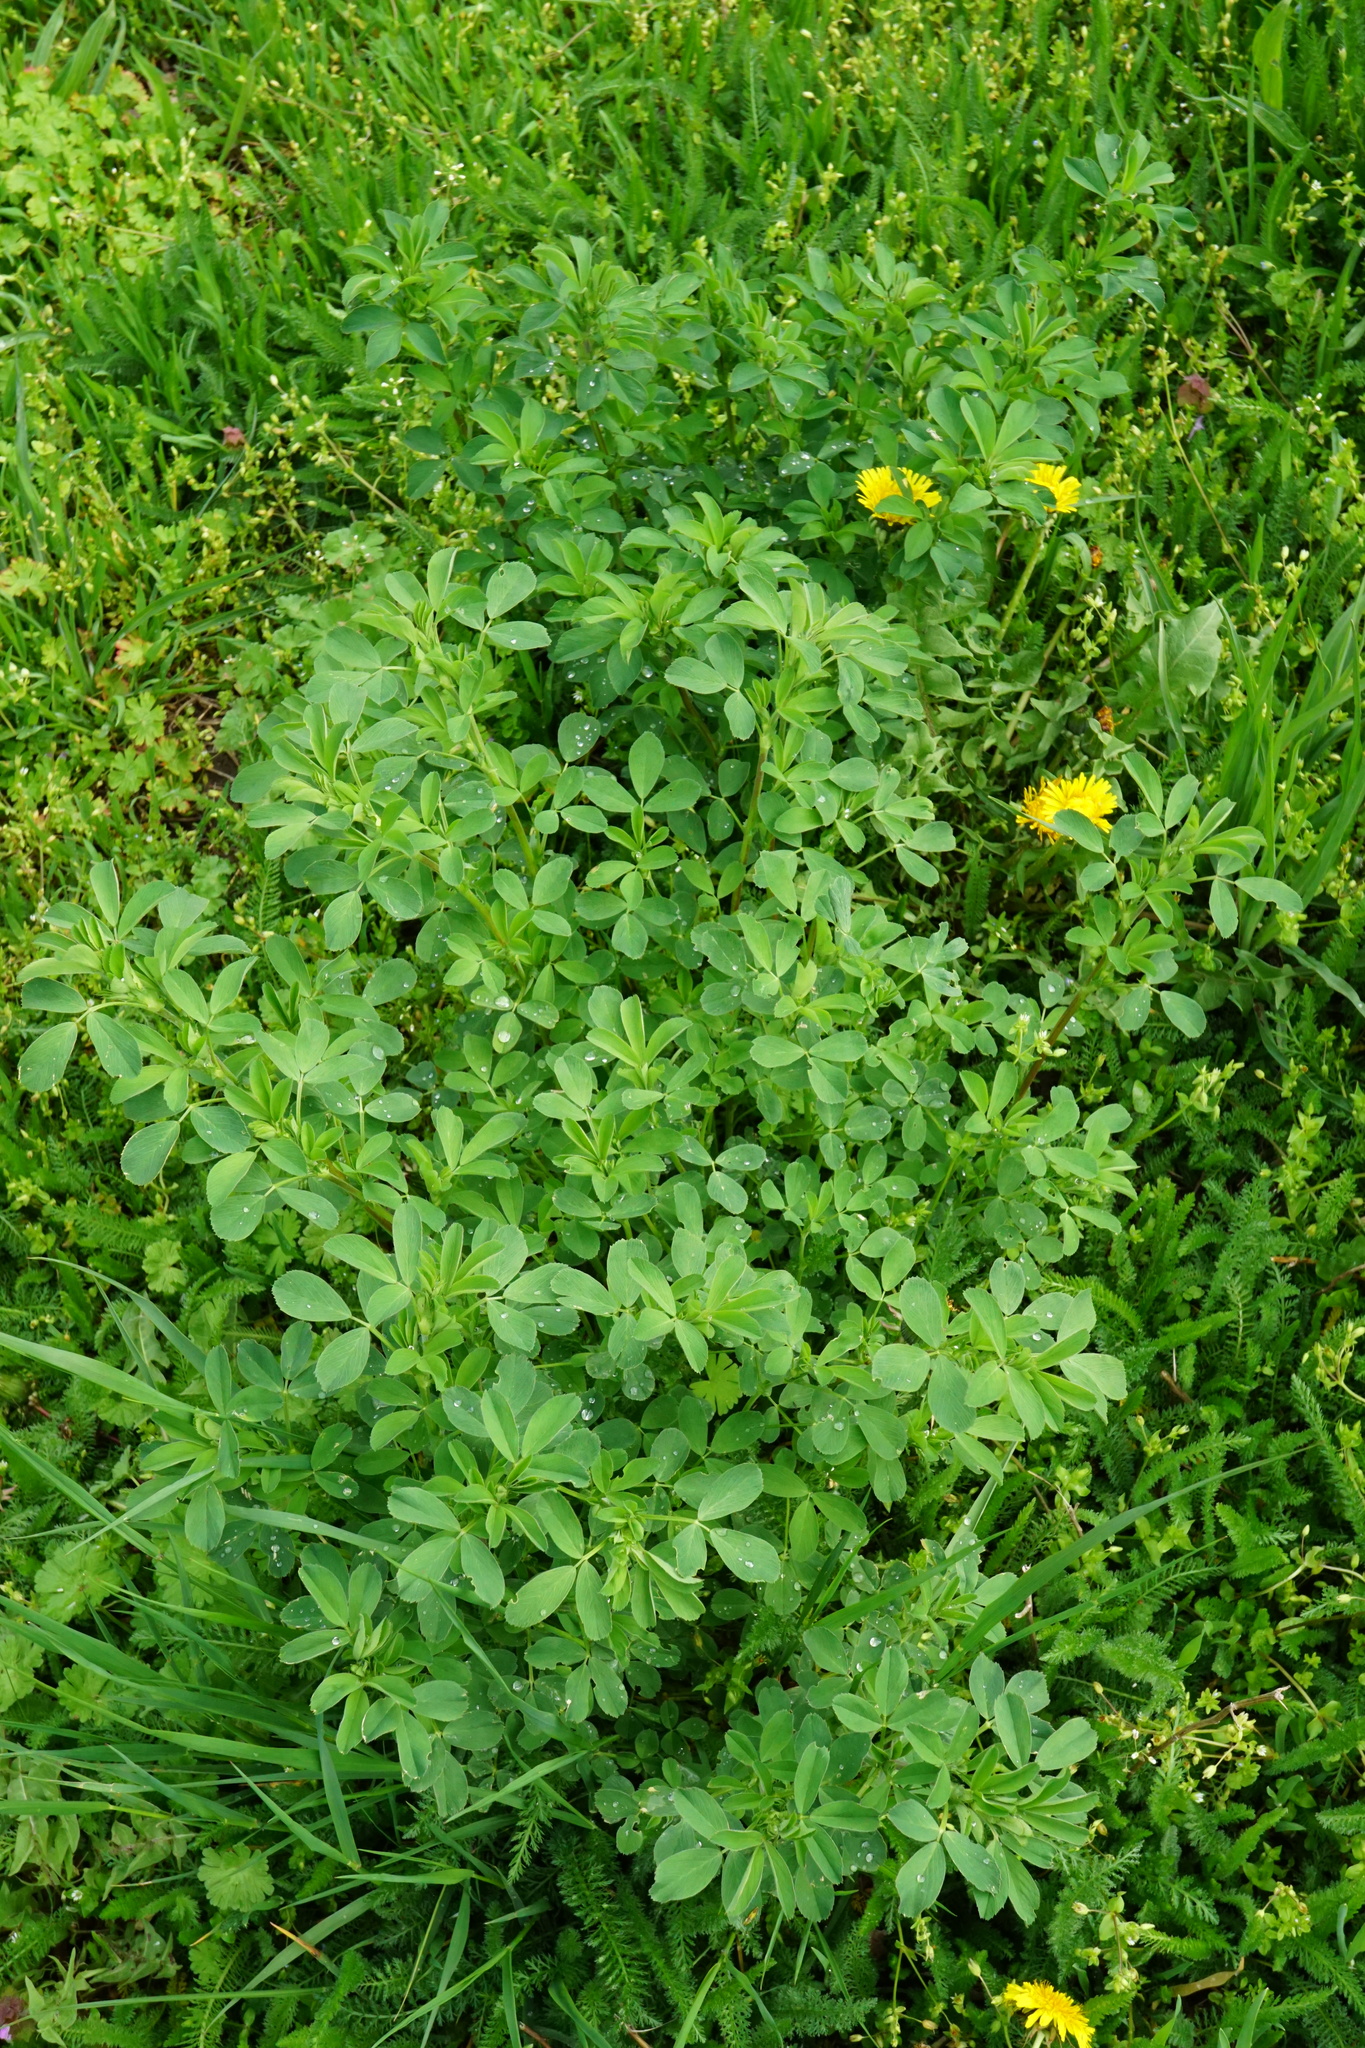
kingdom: Plantae
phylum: Tracheophyta
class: Magnoliopsida
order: Fabales
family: Fabaceae
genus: Medicago
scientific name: Medicago
